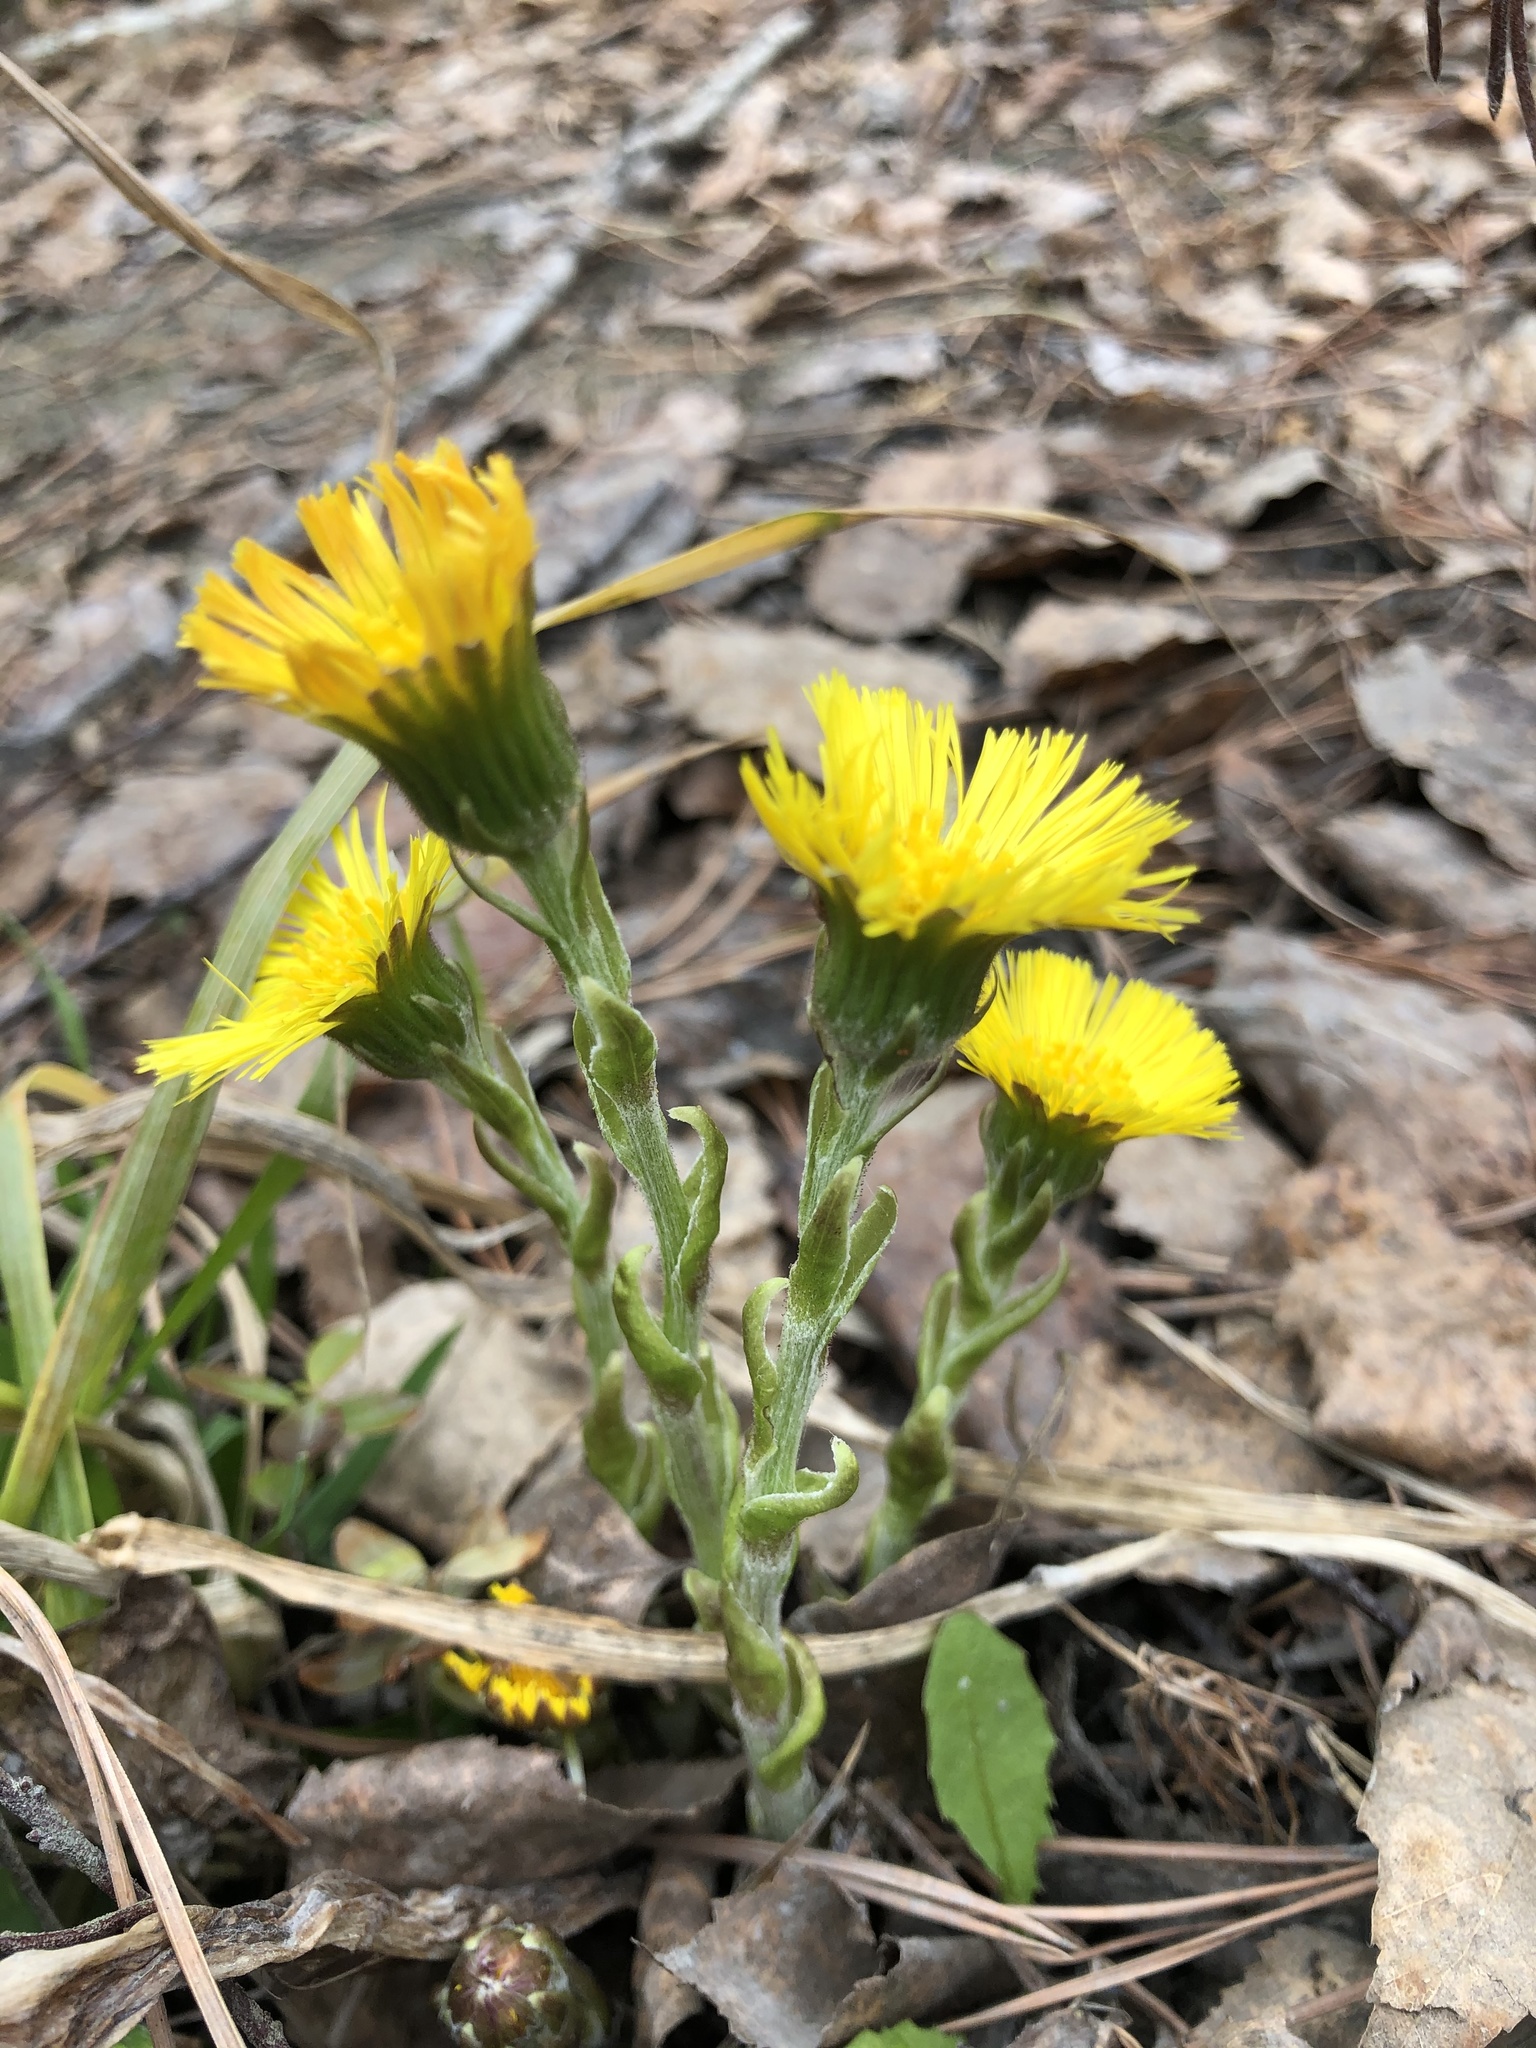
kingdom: Plantae
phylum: Tracheophyta
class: Magnoliopsida
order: Asterales
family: Asteraceae
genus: Tussilago
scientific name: Tussilago farfara
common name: Coltsfoot
